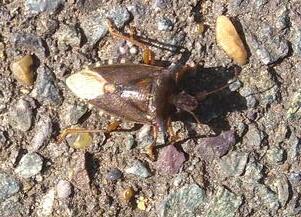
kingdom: Animalia
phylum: Arthropoda
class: Insecta
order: Hemiptera
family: Pentatomidae
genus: Pentatoma
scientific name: Pentatoma rufipes
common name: Forest bug
